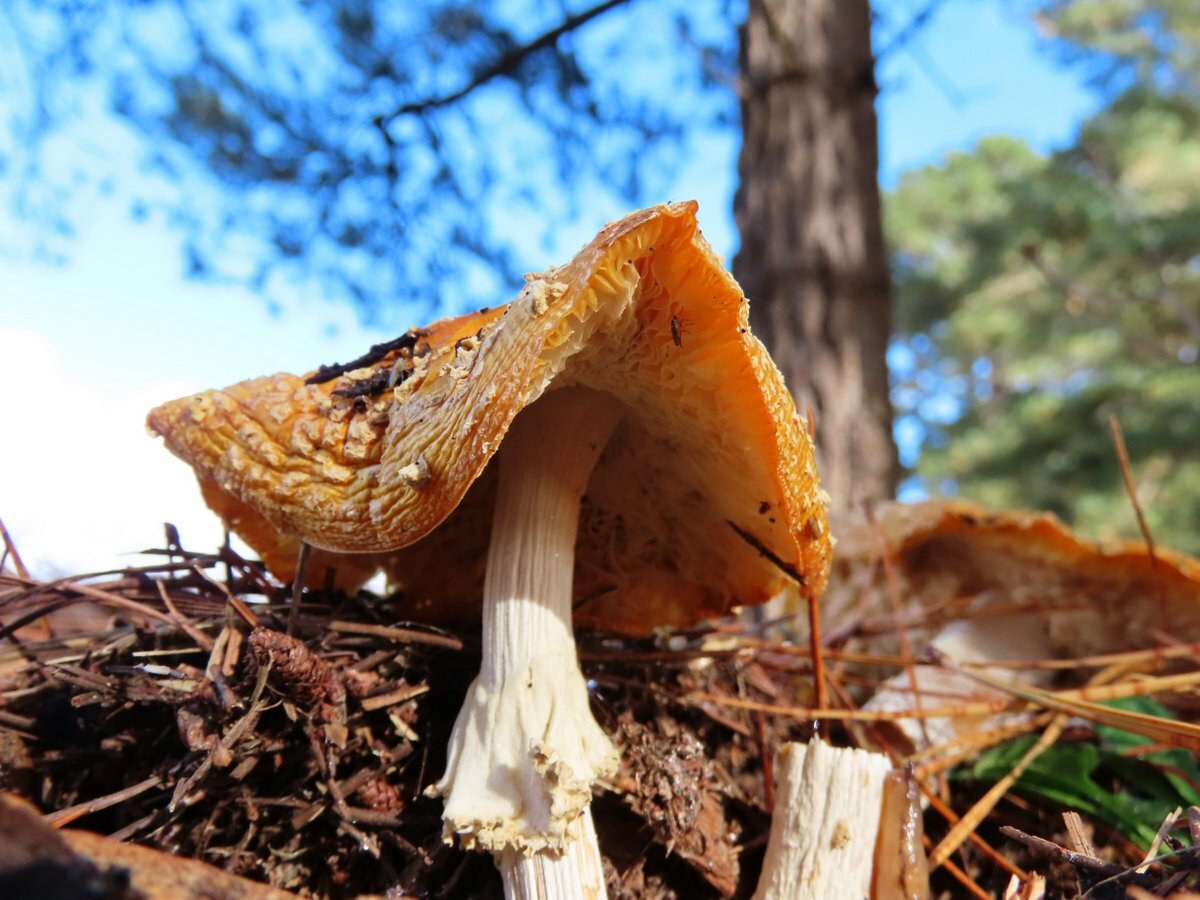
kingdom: Fungi
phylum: Basidiomycota
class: Agaricomycetes
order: Agaricales
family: Amanitaceae
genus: Amanita
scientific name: Amanita muscaria
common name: Fly agaric
